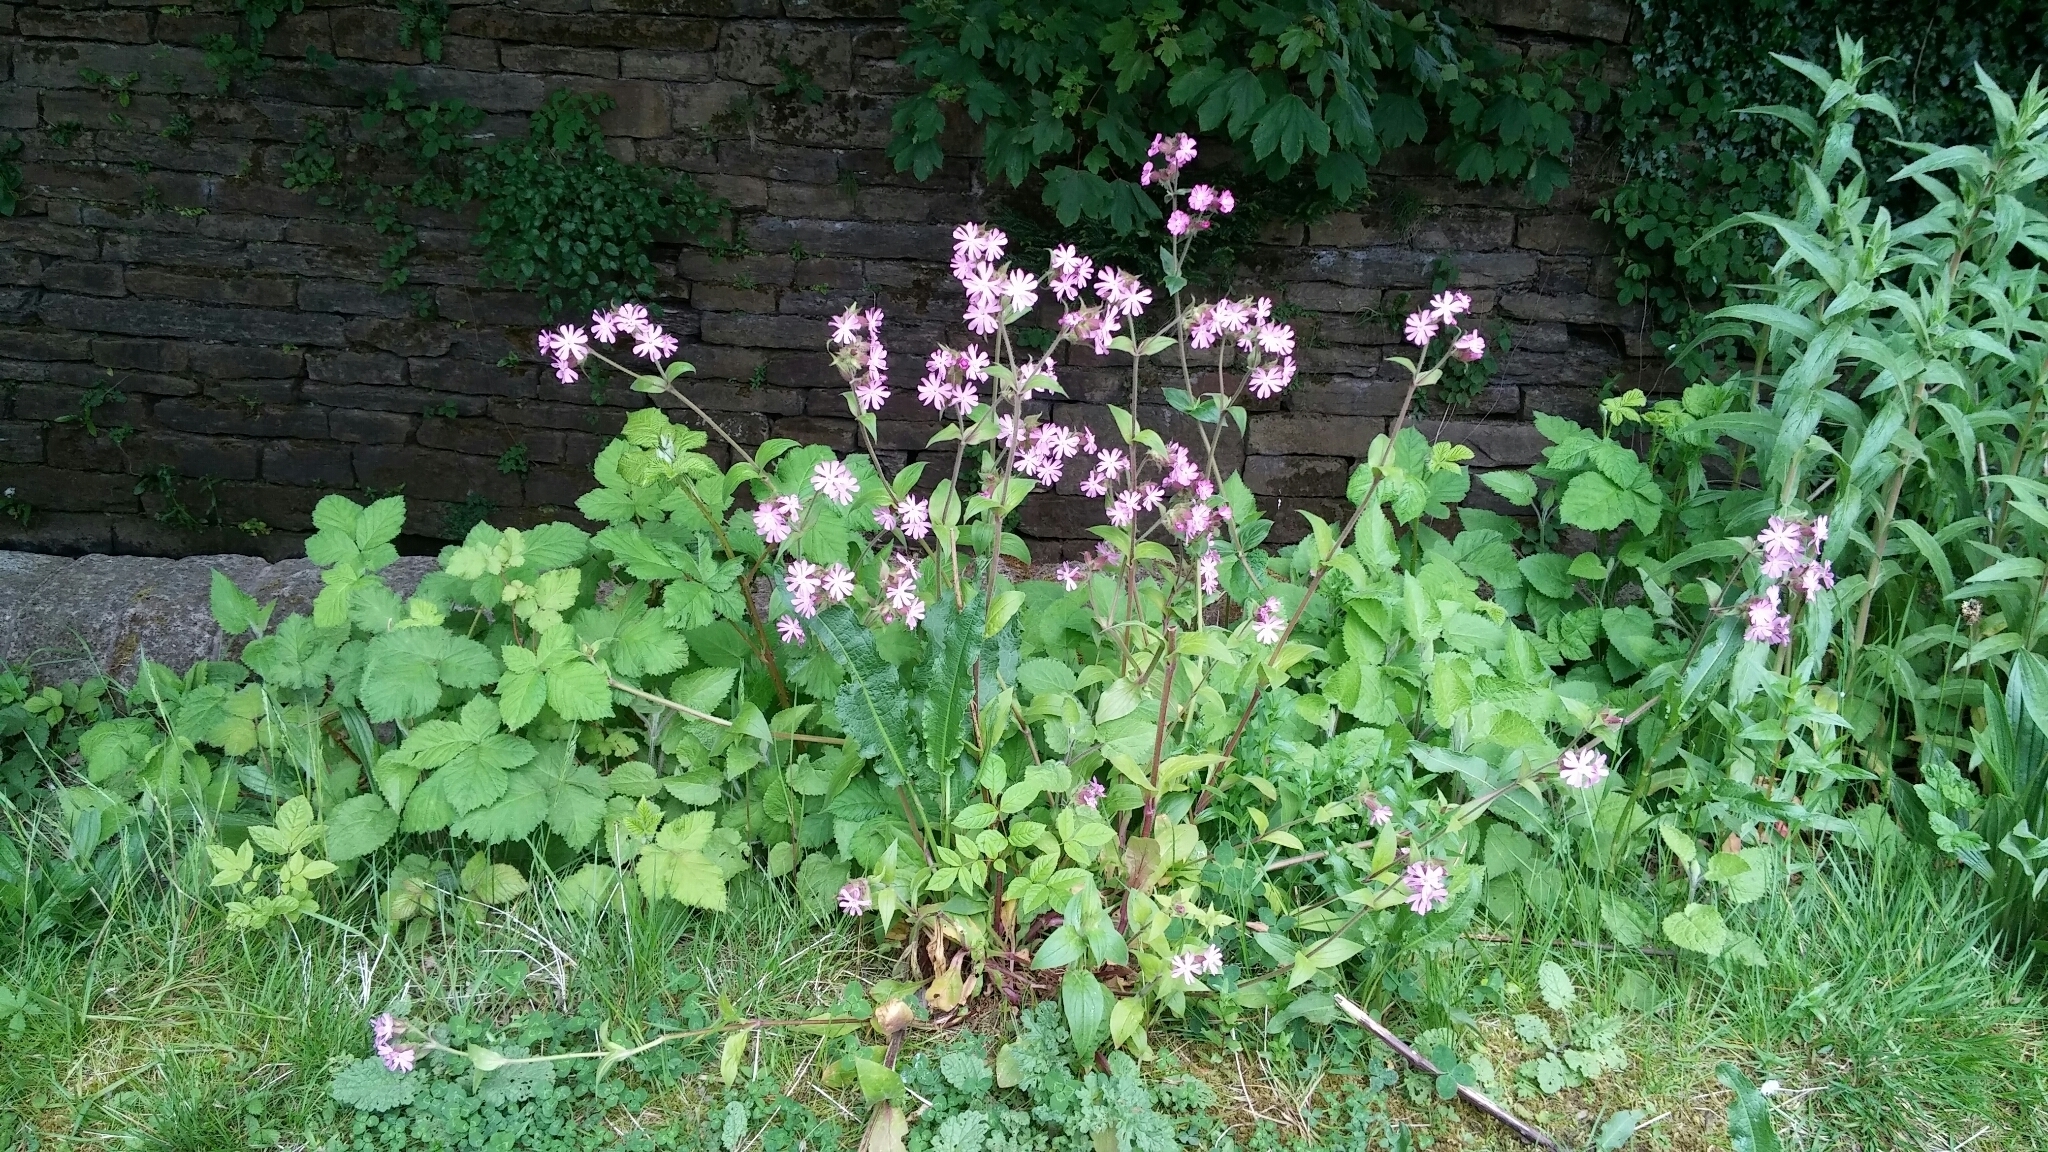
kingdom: Plantae
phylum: Tracheophyta
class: Magnoliopsida
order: Caryophyllales
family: Caryophyllaceae
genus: Silene
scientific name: Silene dioica
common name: Red campion
